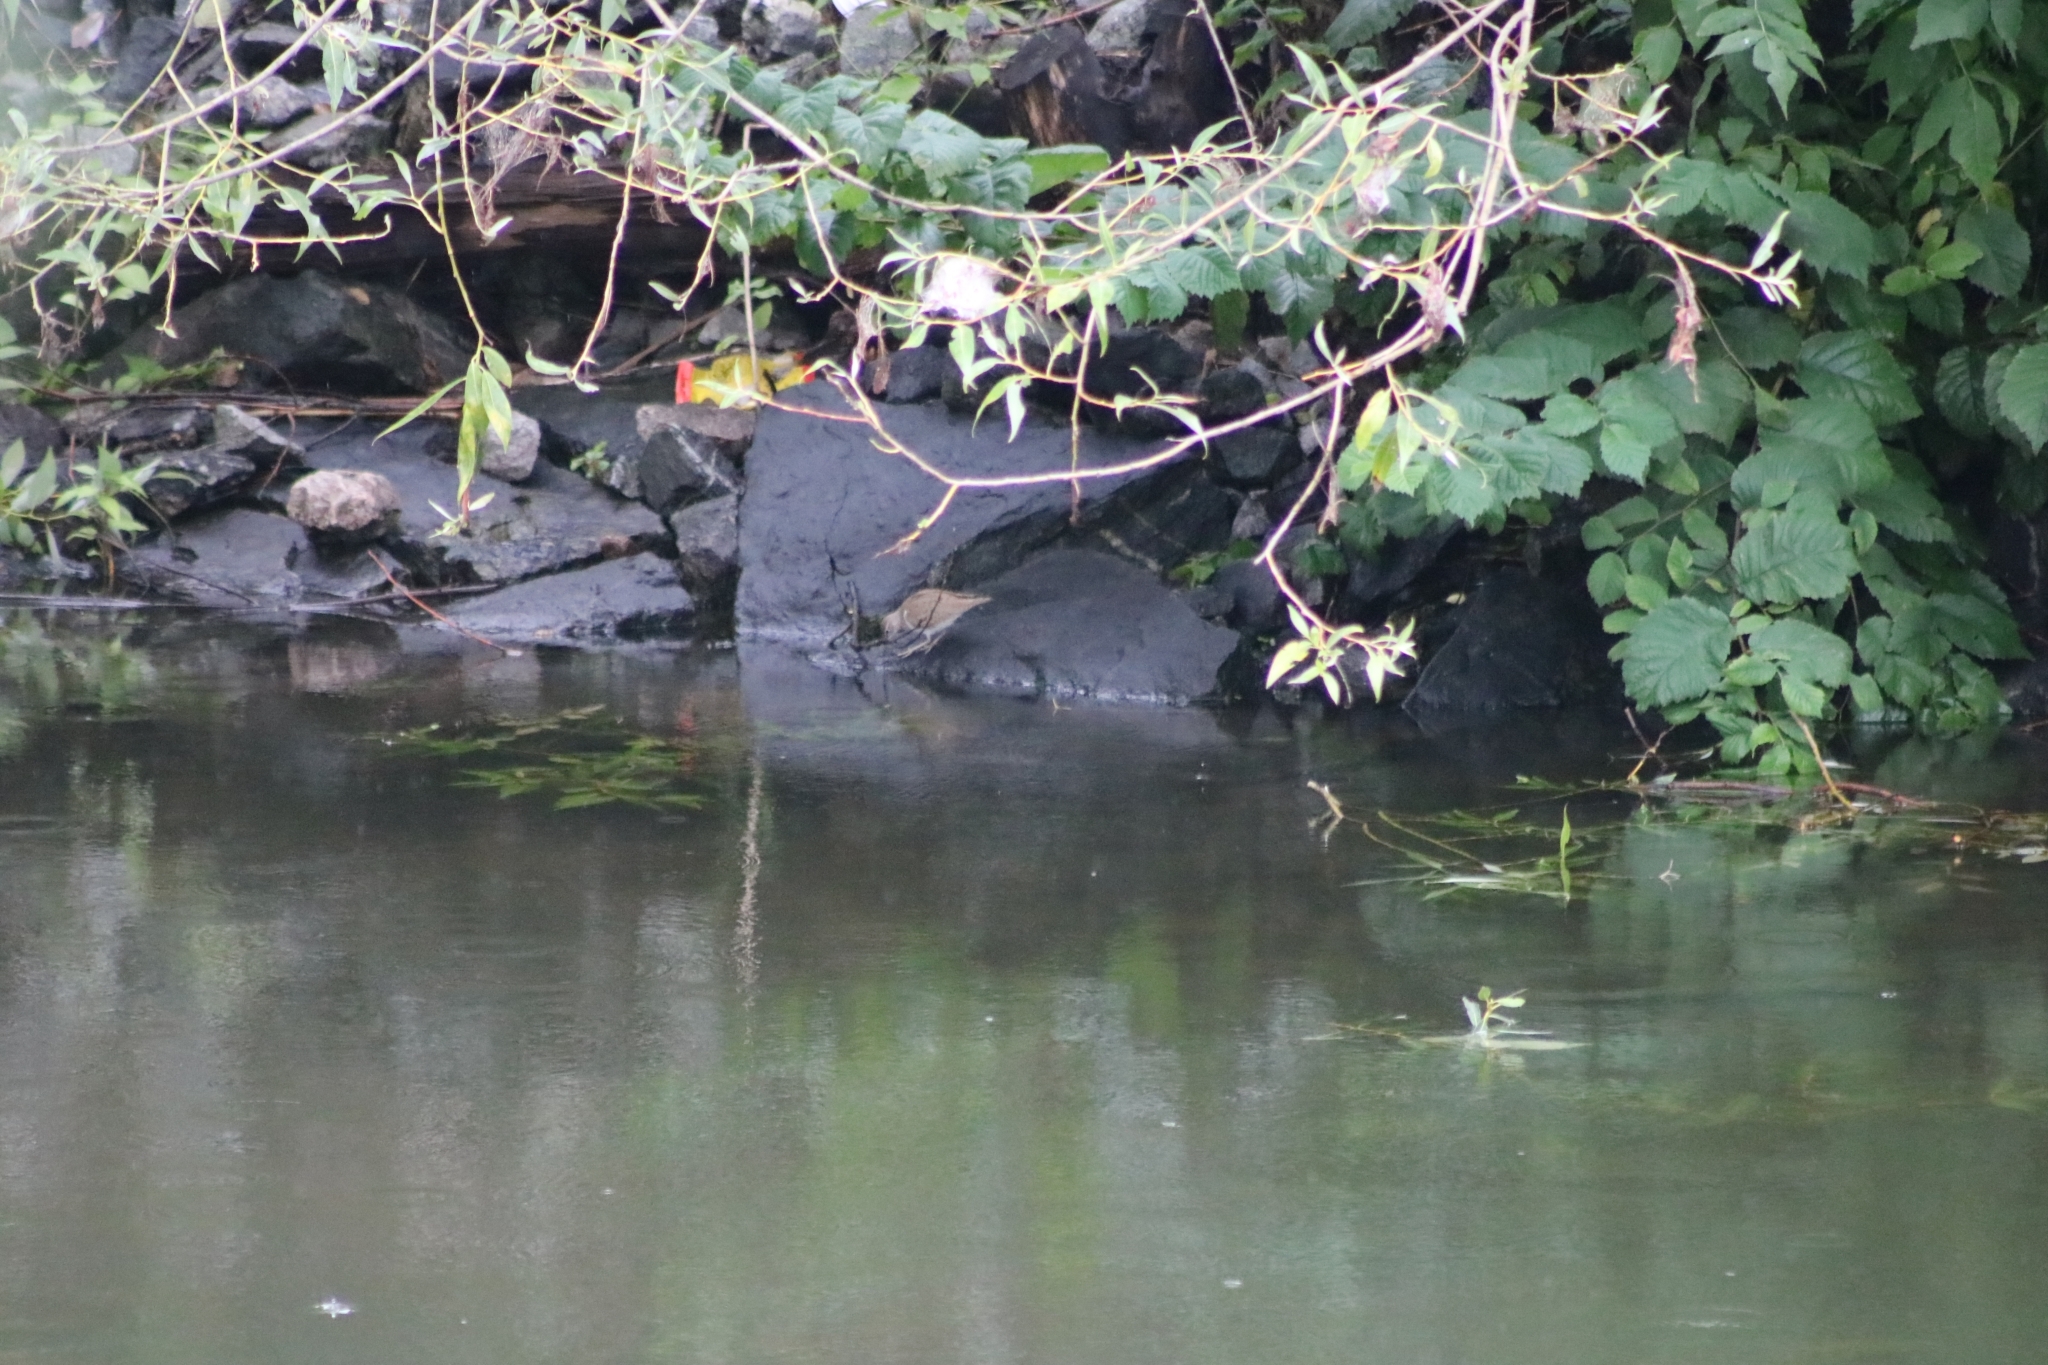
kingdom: Animalia
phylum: Chordata
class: Aves
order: Charadriiformes
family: Scolopacidae
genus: Actitis
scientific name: Actitis hypoleucos
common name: Common sandpiper
